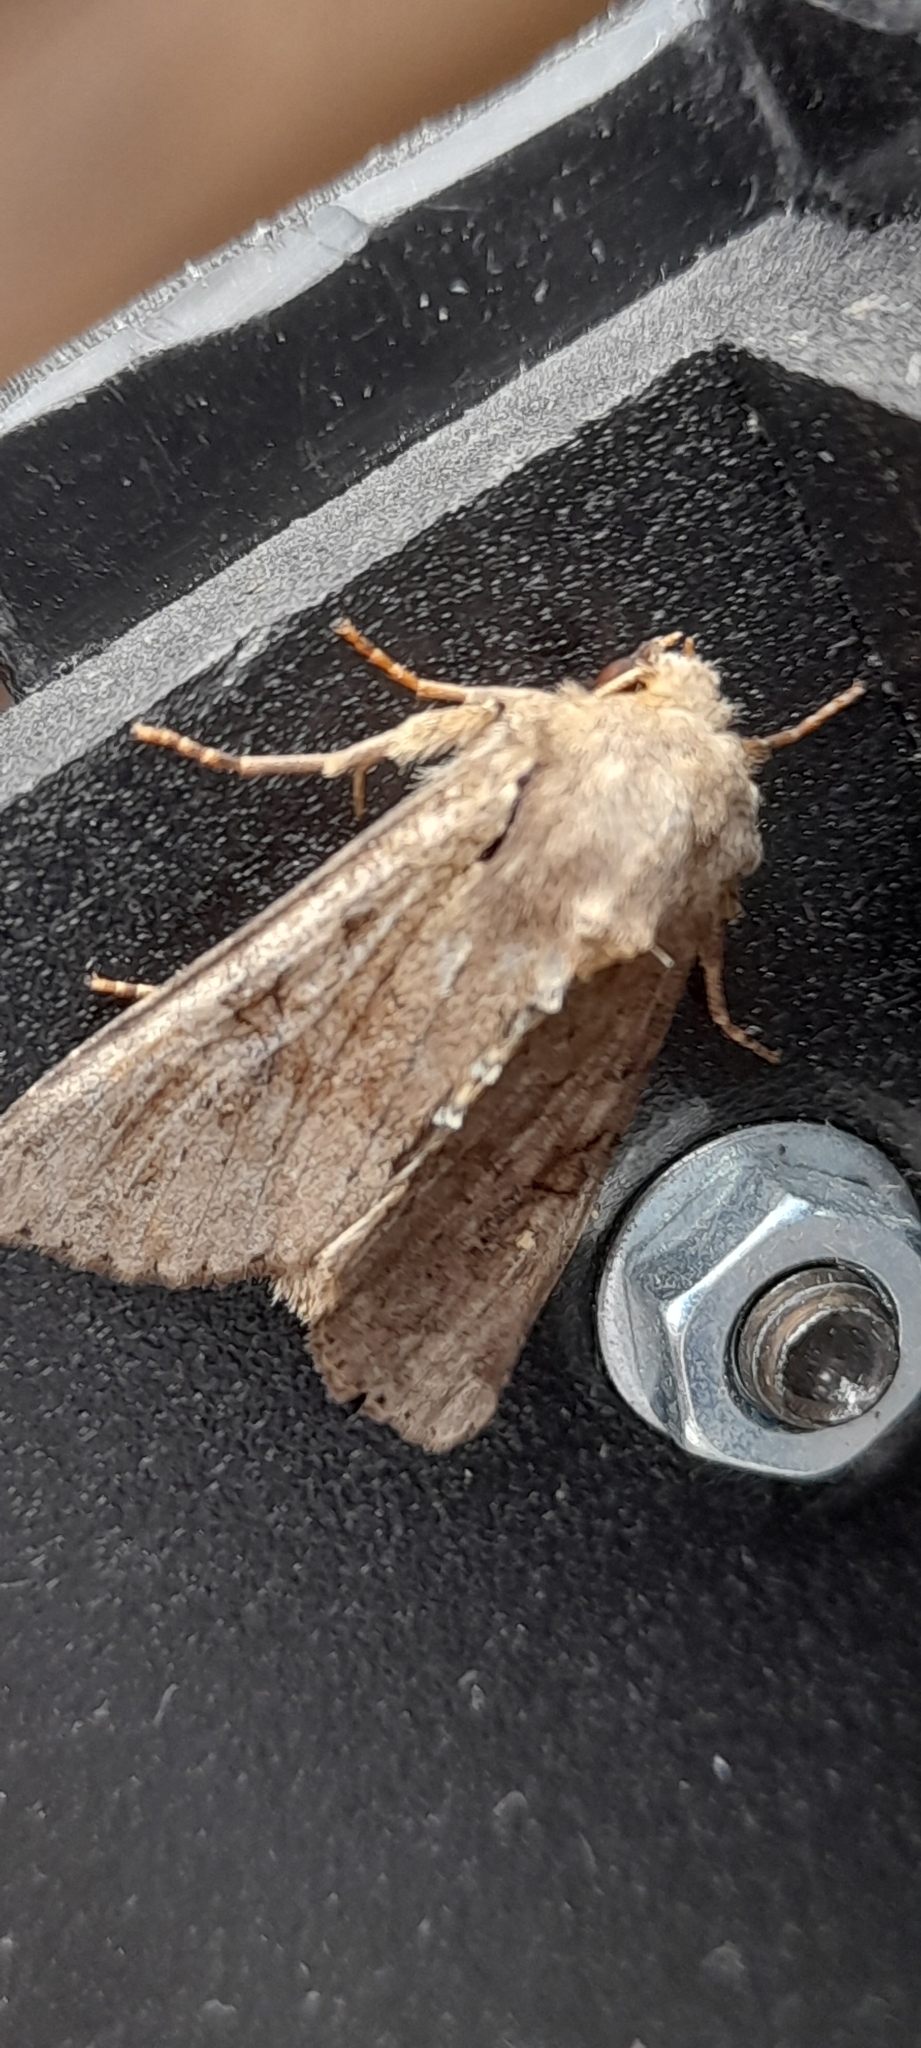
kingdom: Animalia
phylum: Arthropoda
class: Insecta
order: Lepidoptera
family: Noctuidae
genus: Apamea
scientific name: Apamea sordens
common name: Rustic shoulder-knot
